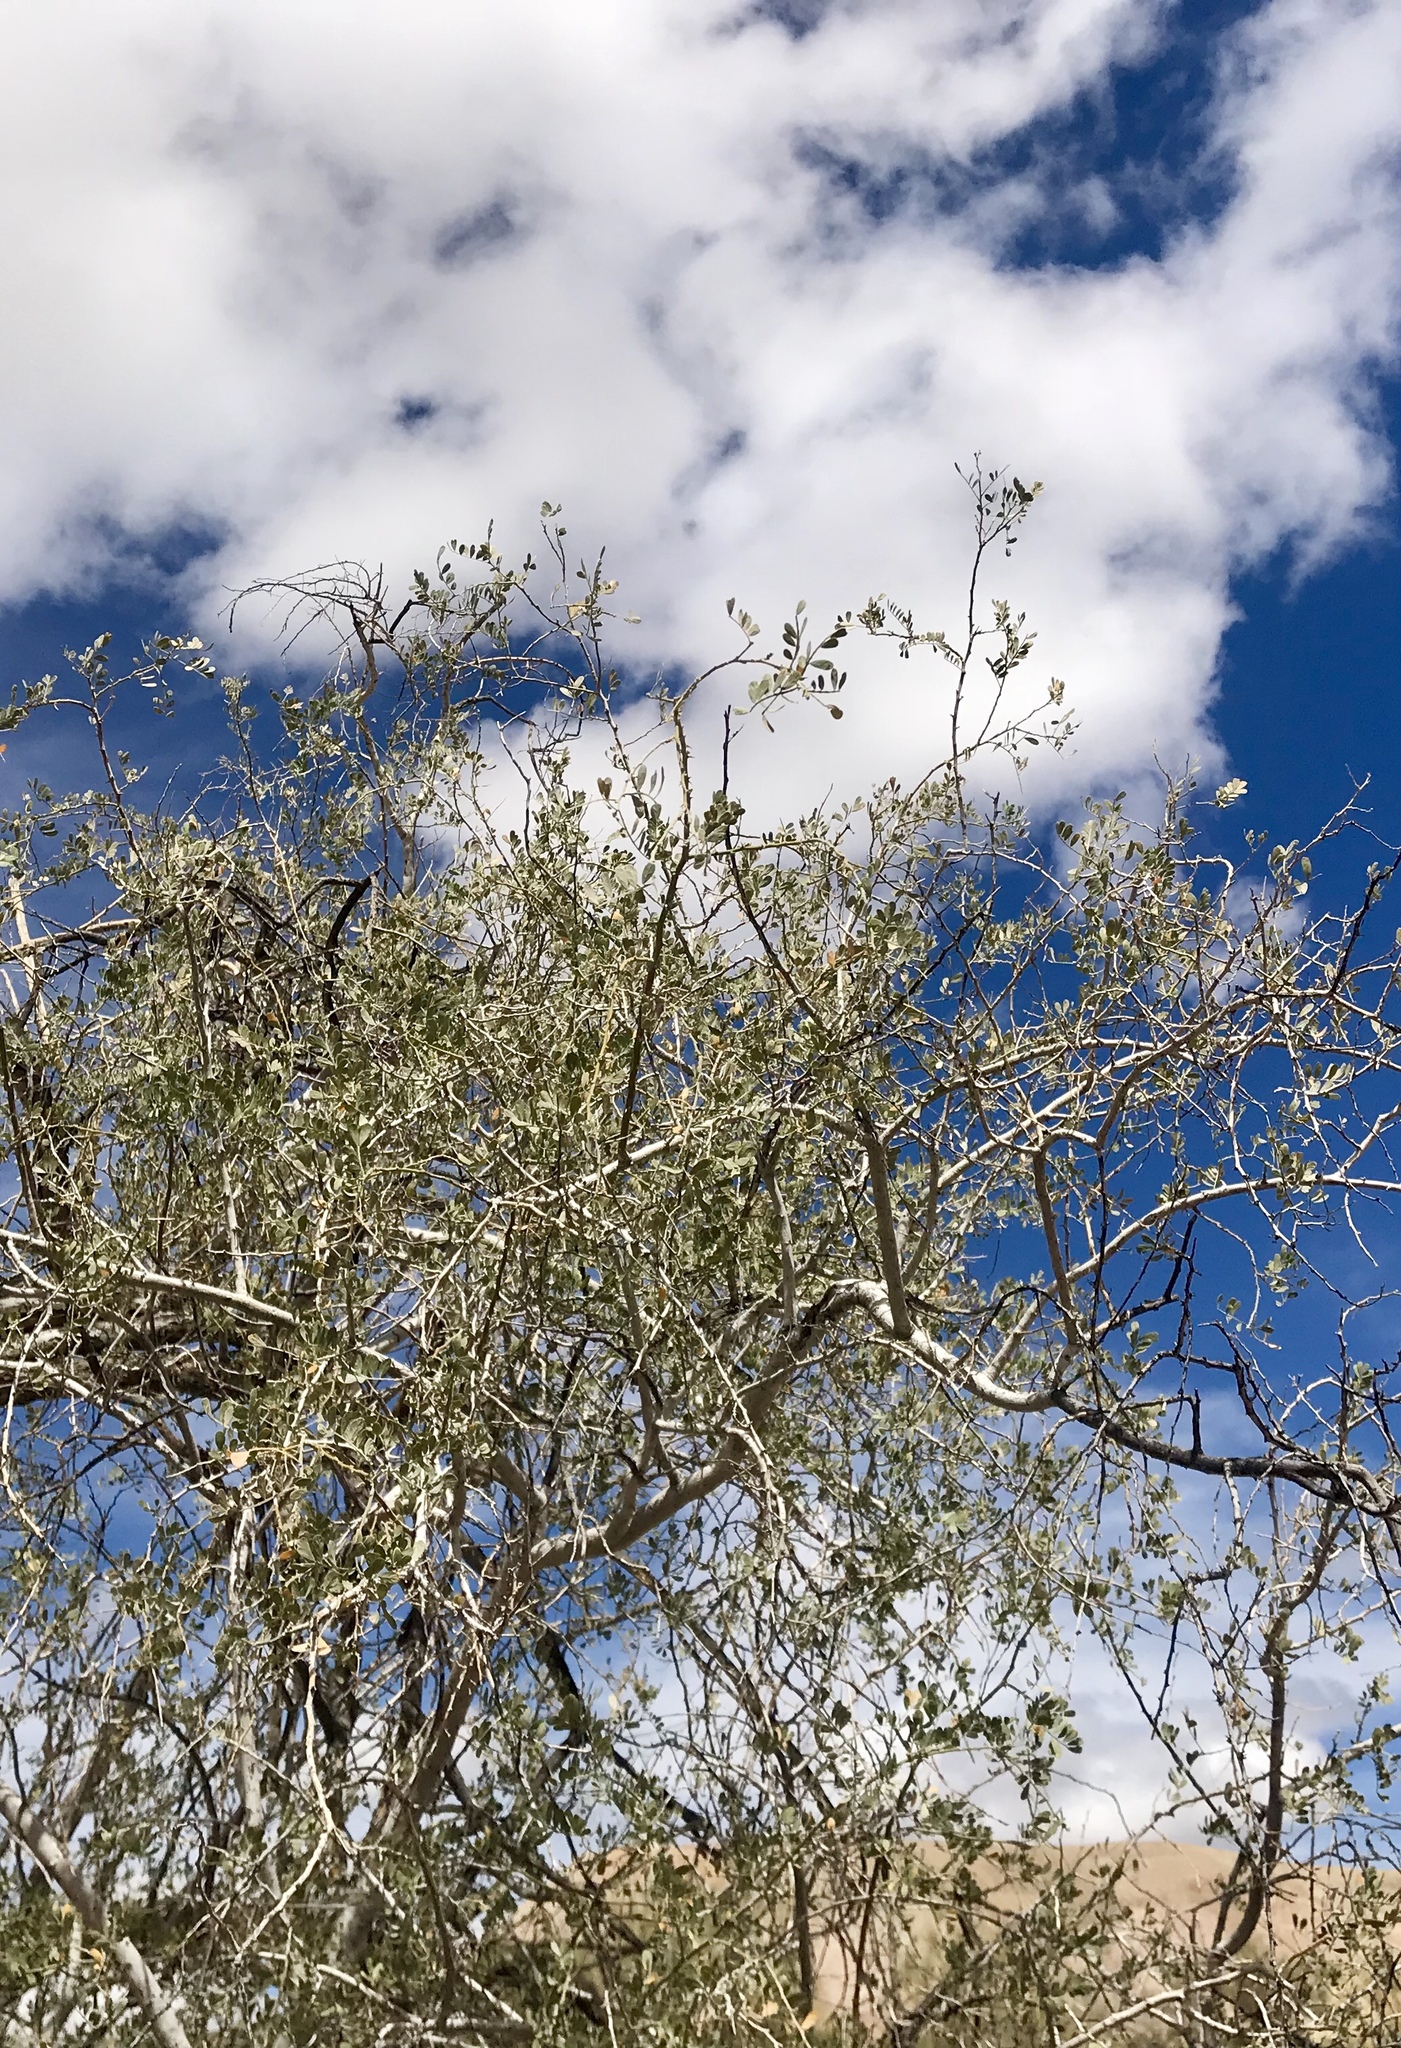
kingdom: Plantae
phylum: Tracheophyta
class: Magnoliopsida
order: Fabales
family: Fabaceae
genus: Olneya
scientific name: Olneya tesota
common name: Desert ironwood
